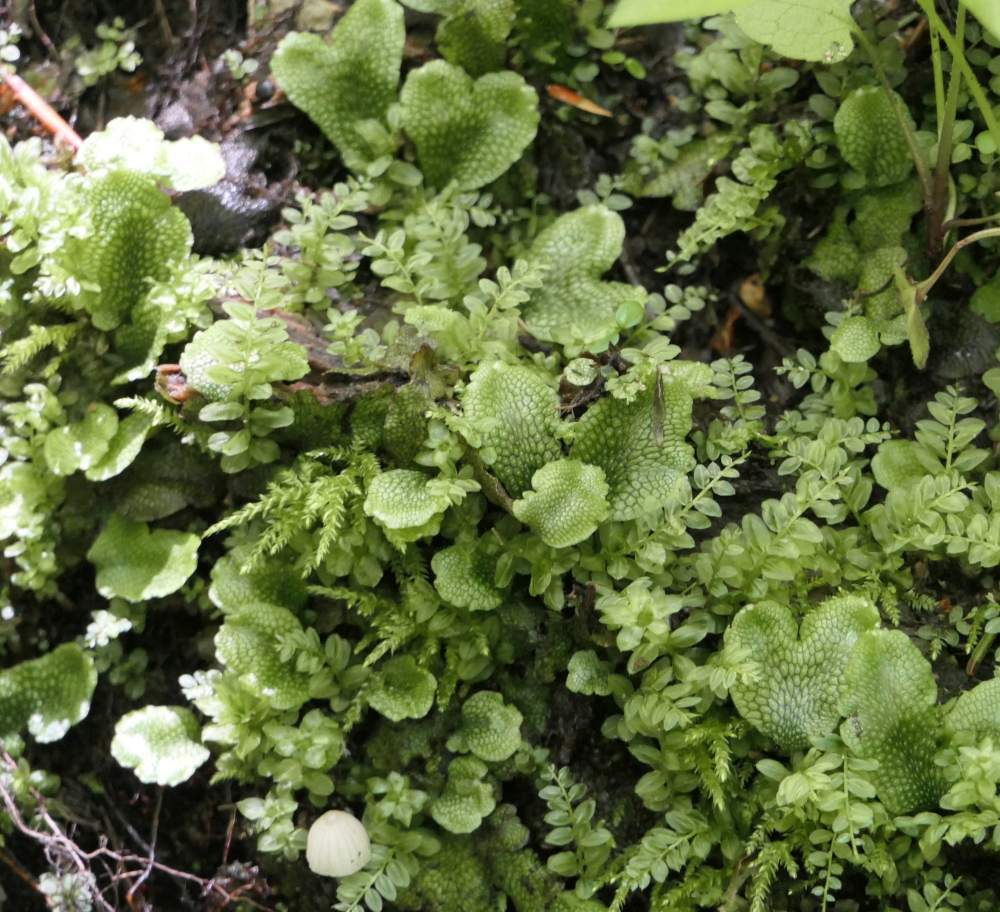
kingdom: Plantae
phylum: Marchantiophyta
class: Marchantiopsida
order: Marchantiales
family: Conocephalaceae
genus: Conocephalum
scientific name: Conocephalum salebrosum
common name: Cat-tongue liverwort
